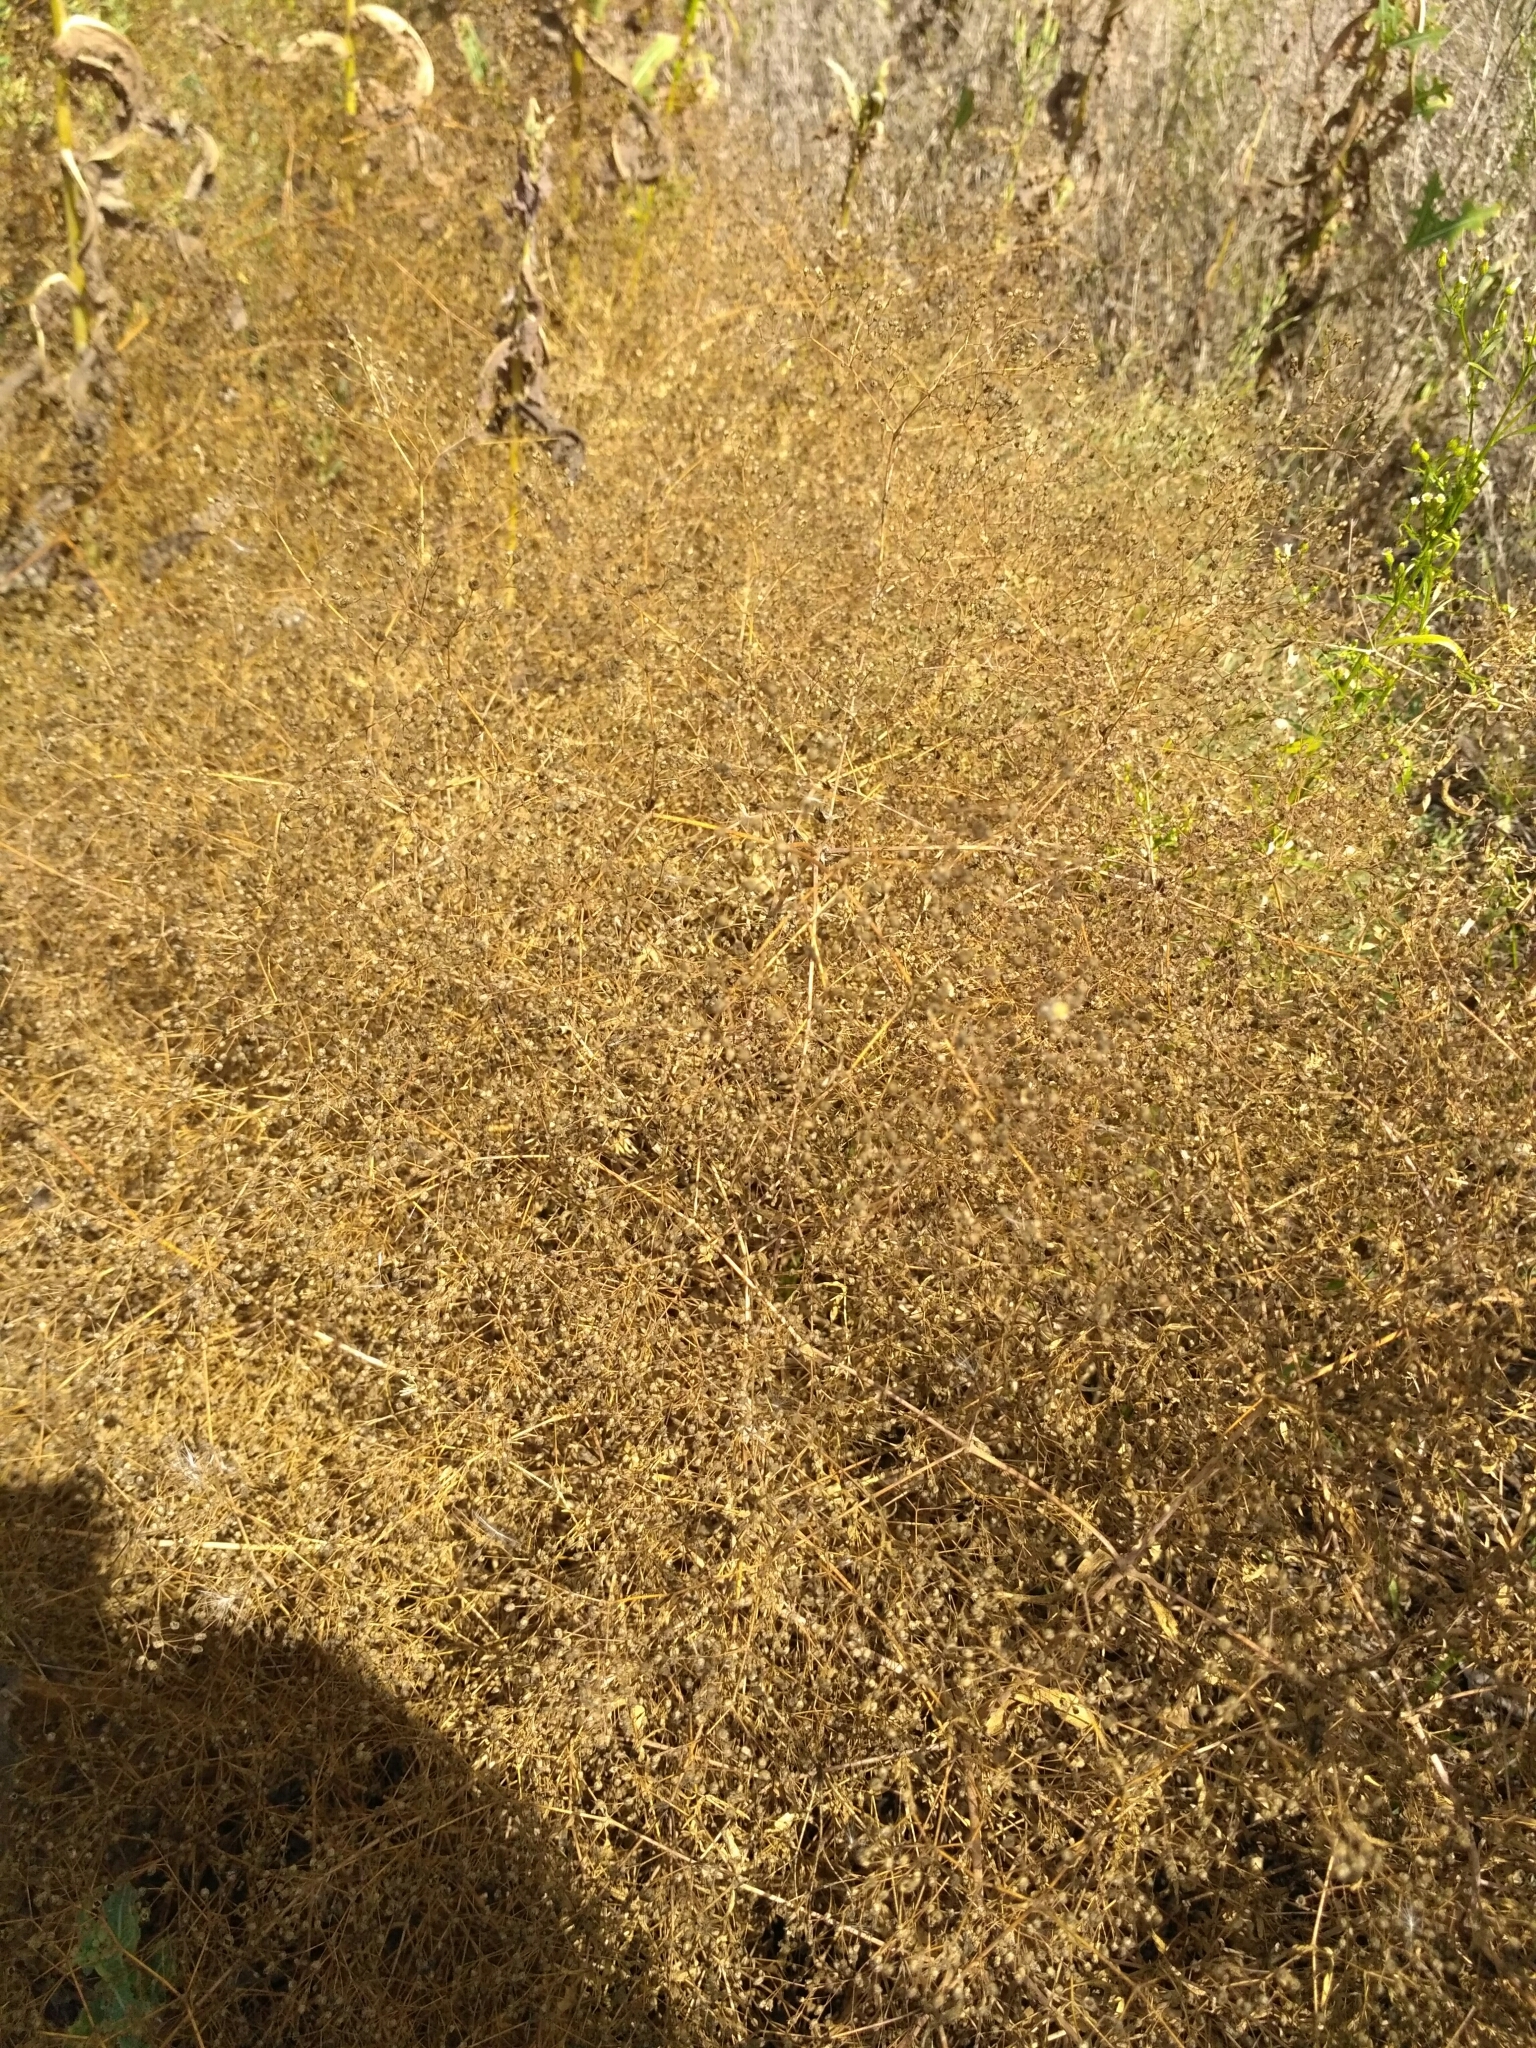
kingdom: Plantae
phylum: Tracheophyta
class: Magnoliopsida
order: Caryophyllales
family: Caryophyllaceae
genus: Gypsophila
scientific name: Gypsophila paniculata
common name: Baby's-breath
